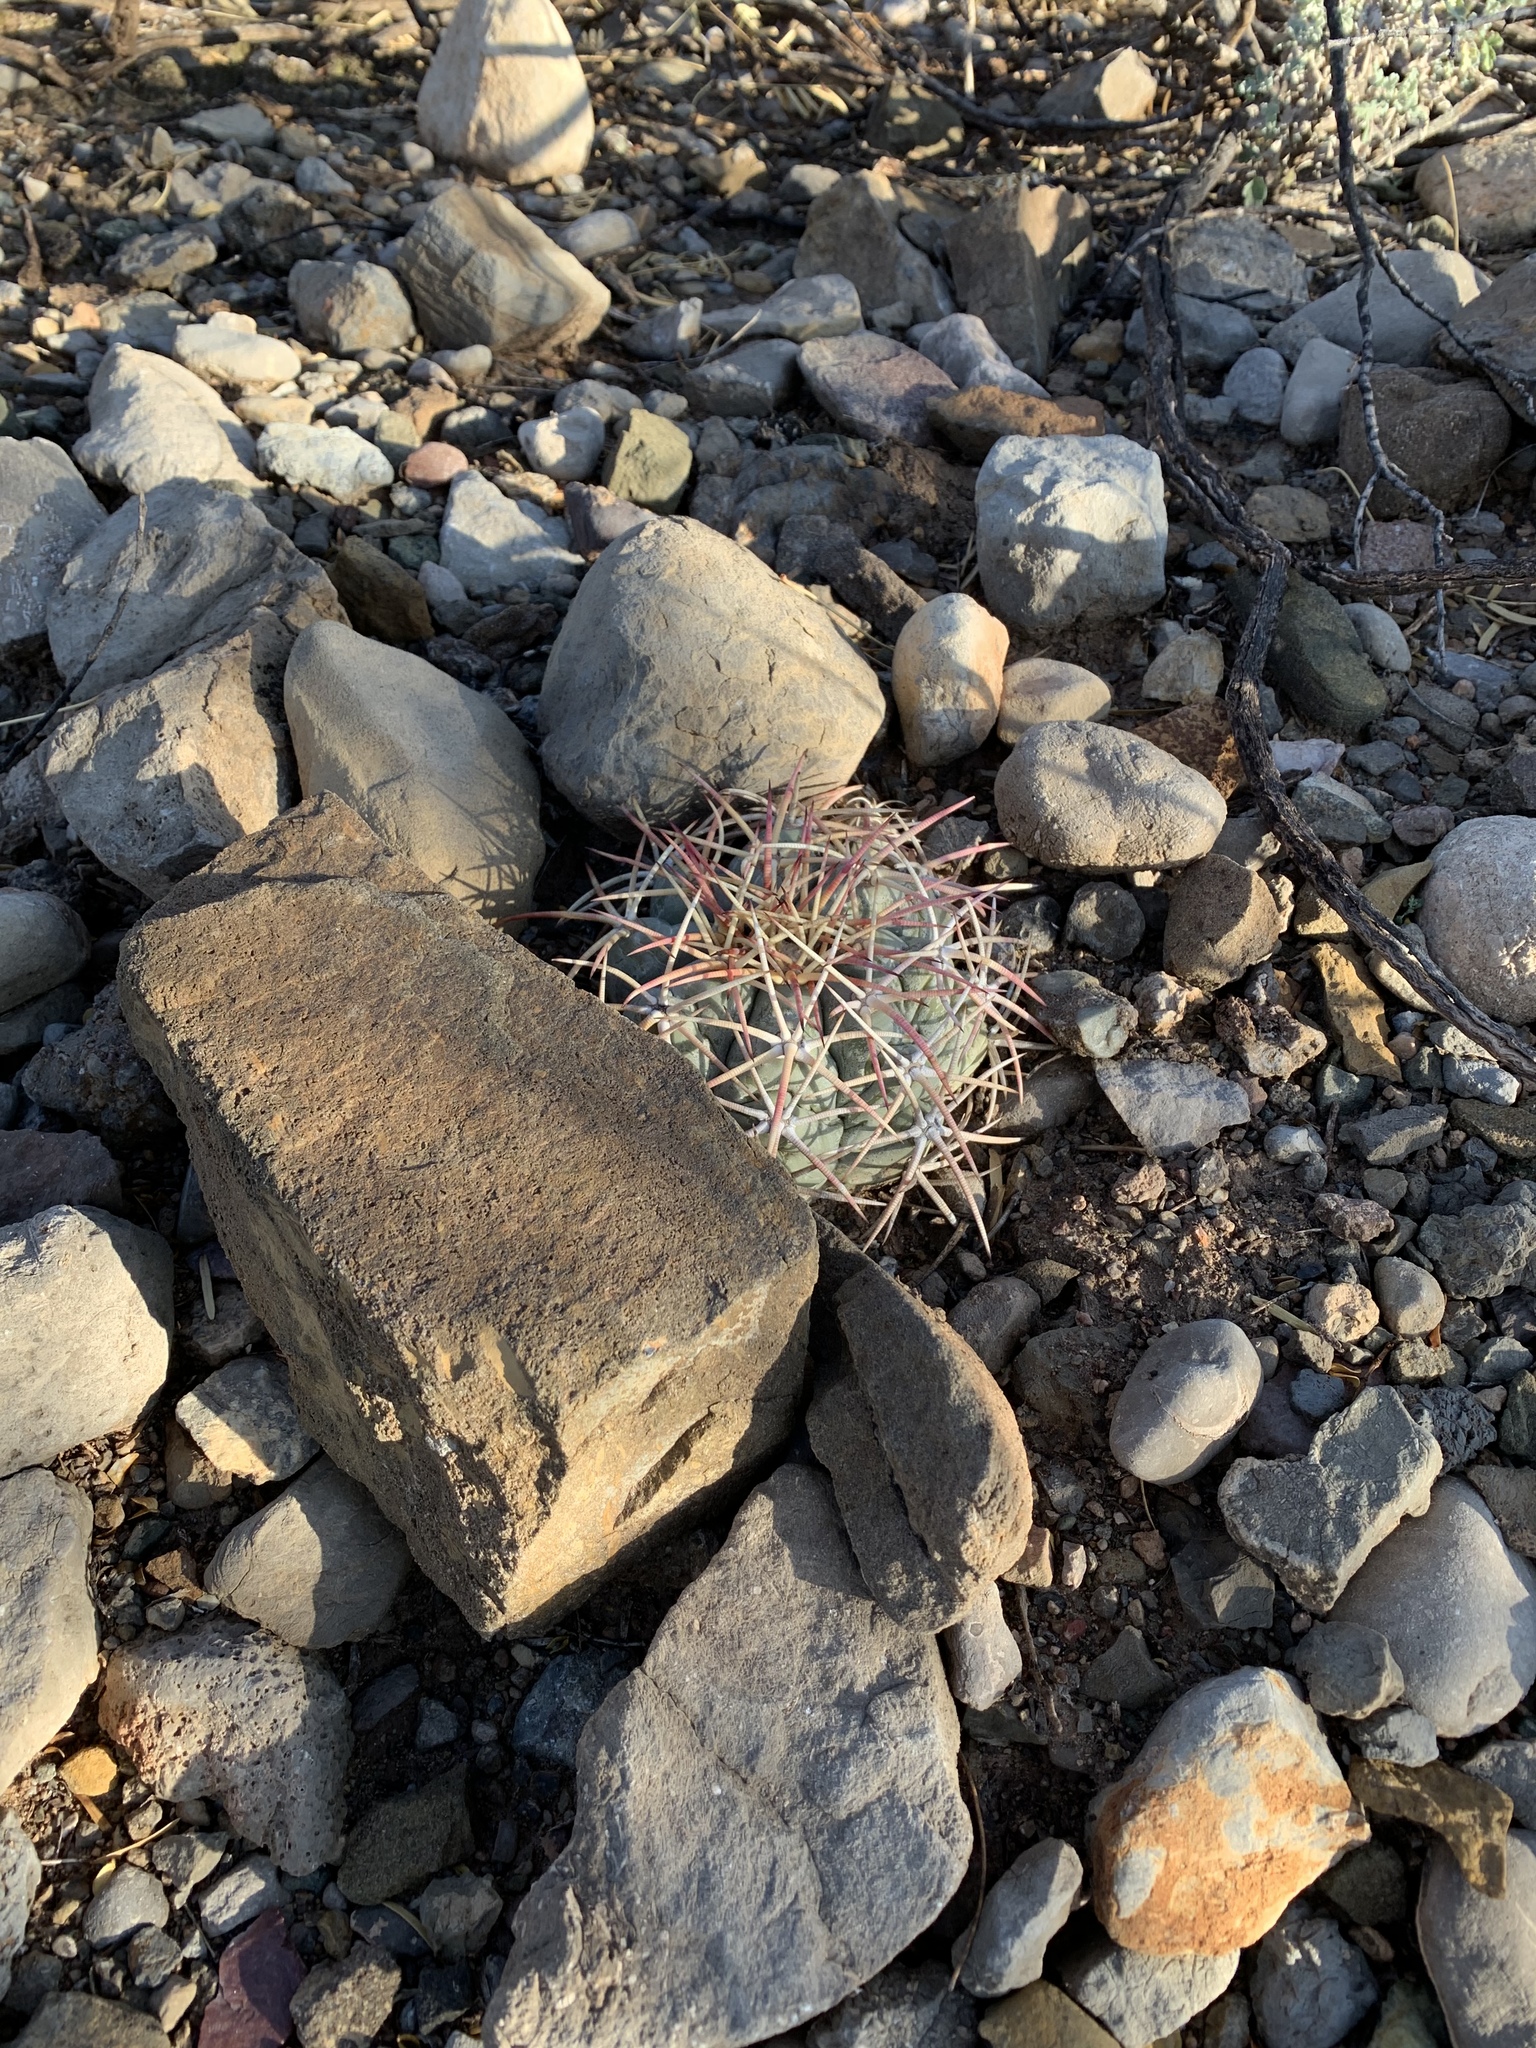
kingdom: Plantae
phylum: Tracheophyta
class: Magnoliopsida
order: Caryophyllales
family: Cactaceae
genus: Echinocactus
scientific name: Echinocactus horizonthalonius
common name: Devilshead
